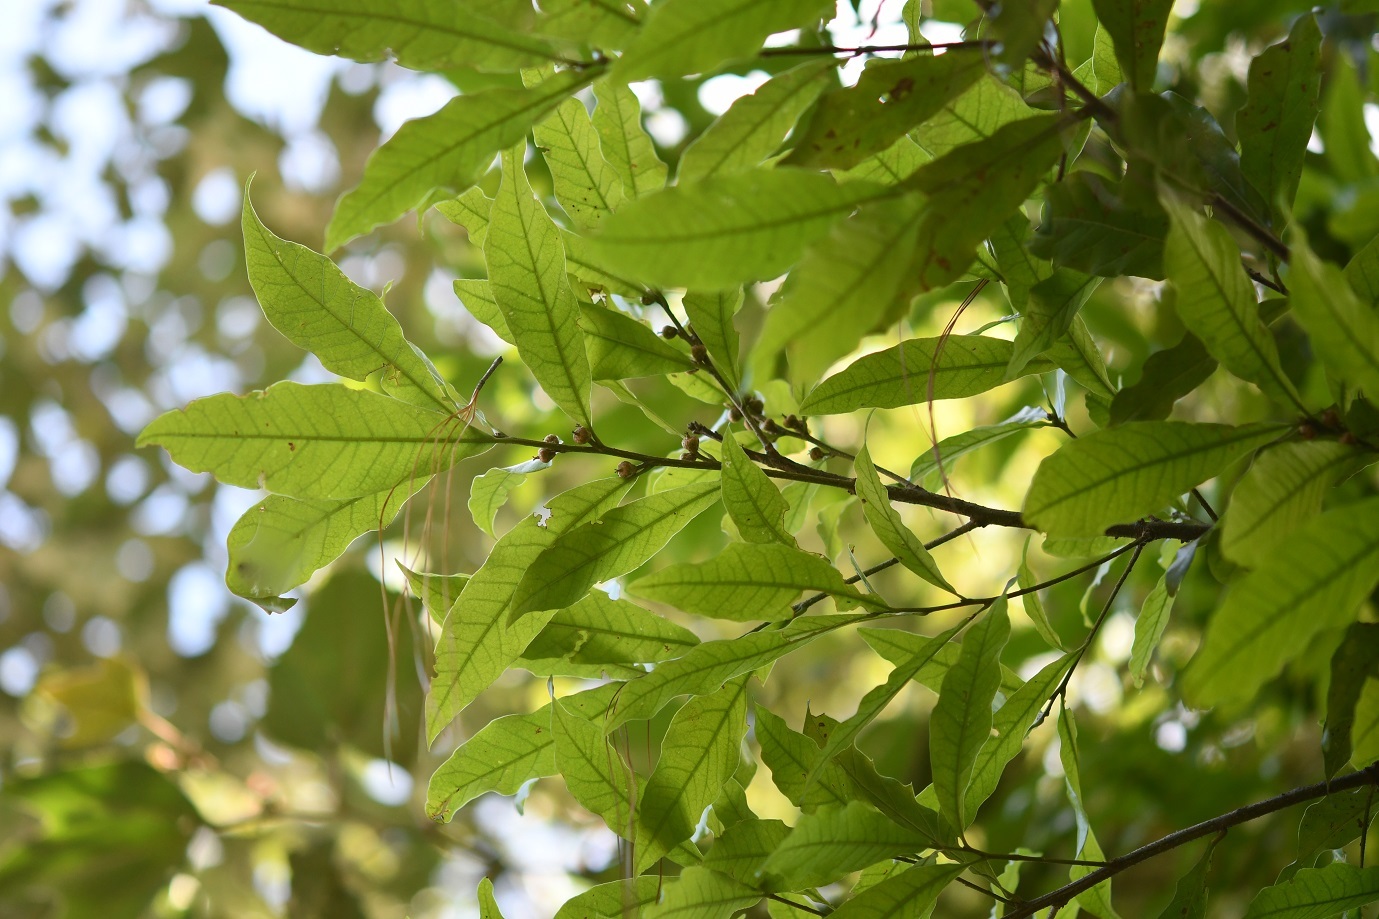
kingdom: Plantae
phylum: Tracheophyta
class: Magnoliopsida
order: Fagales
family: Fagaceae
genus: Quercus
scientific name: Quercus sapotifolia
